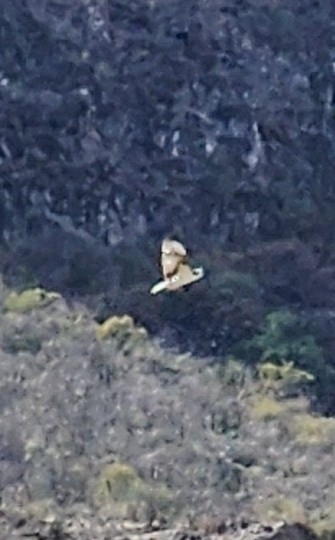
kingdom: Animalia
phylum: Chordata
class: Aves
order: Accipitriformes
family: Pandionidae
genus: Pandion
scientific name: Pandion haliaetus
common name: Osprey
